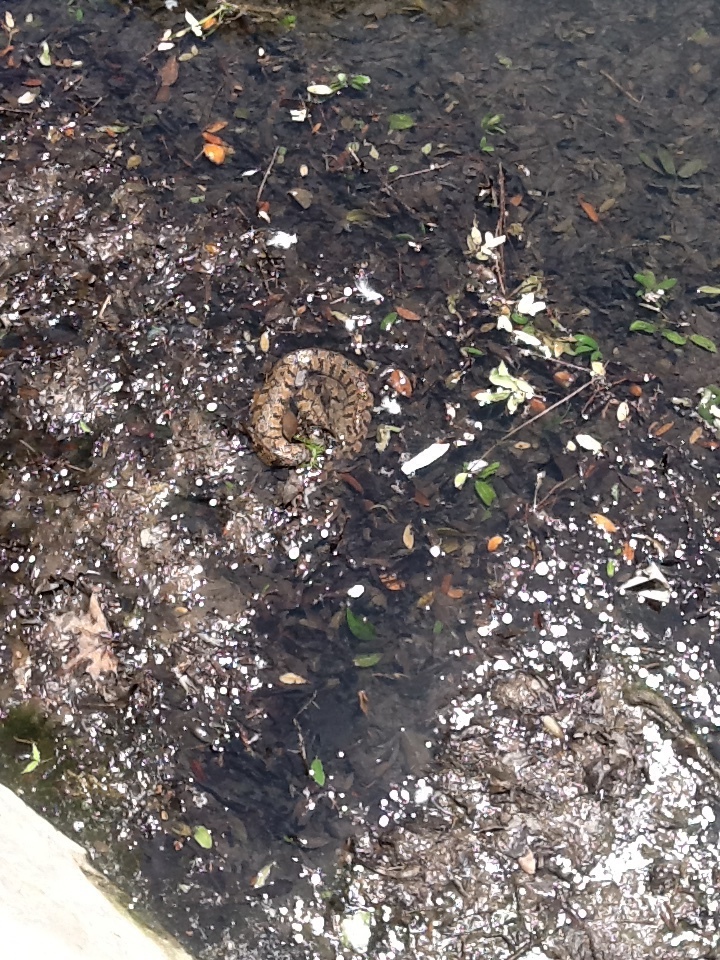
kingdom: Animalia
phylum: Chordata
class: Squamata
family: Colubridae
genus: Nerodia
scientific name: Nerodia rhombifer
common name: Diamondback water snake
